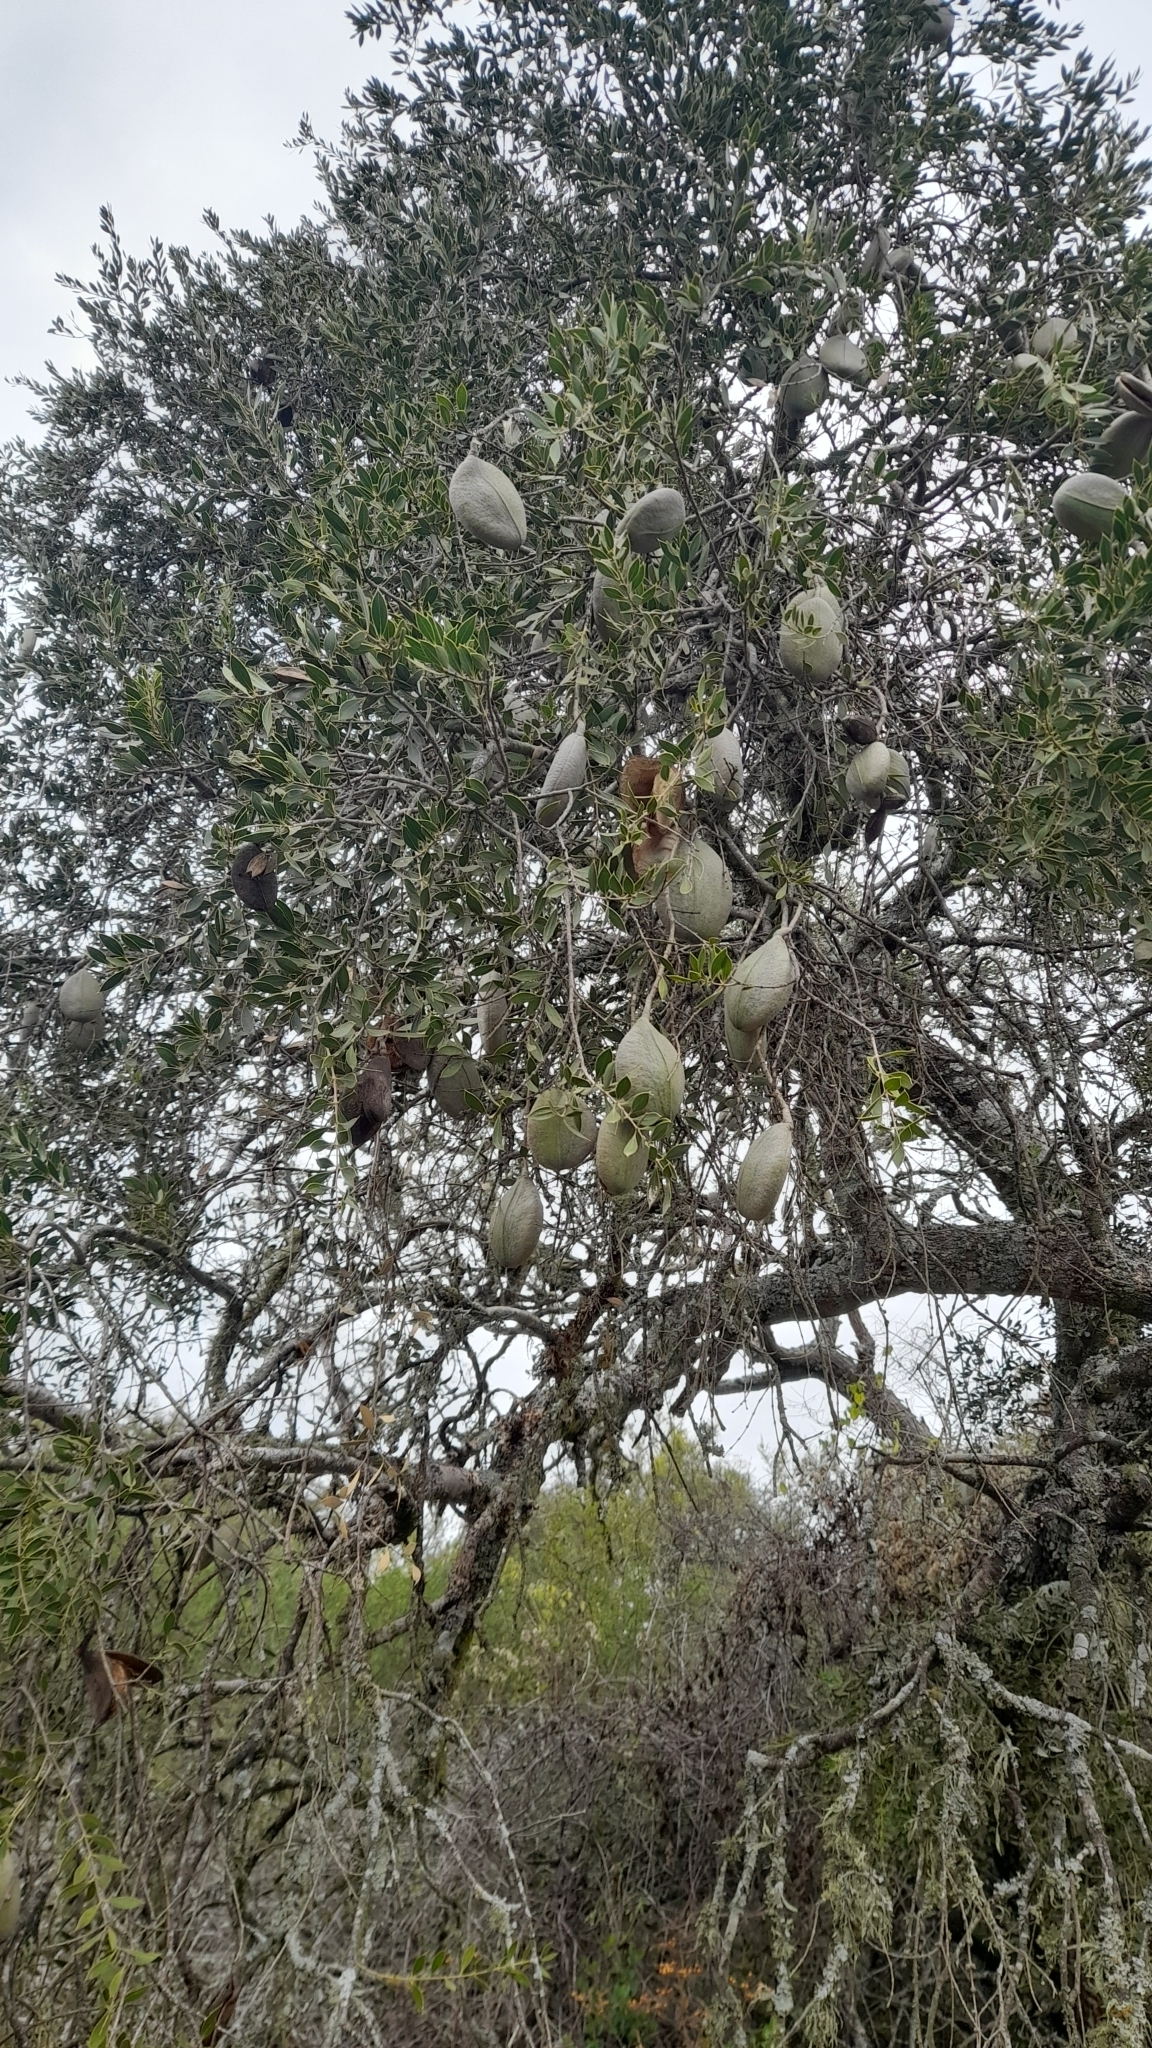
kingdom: Plantae
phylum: Tracheophyta
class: Magnoliopsida
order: Gentianales
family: Apocynaceae
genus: Aspidosperma
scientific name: Aspidosperma quebracho-blanco
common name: White quebracho
